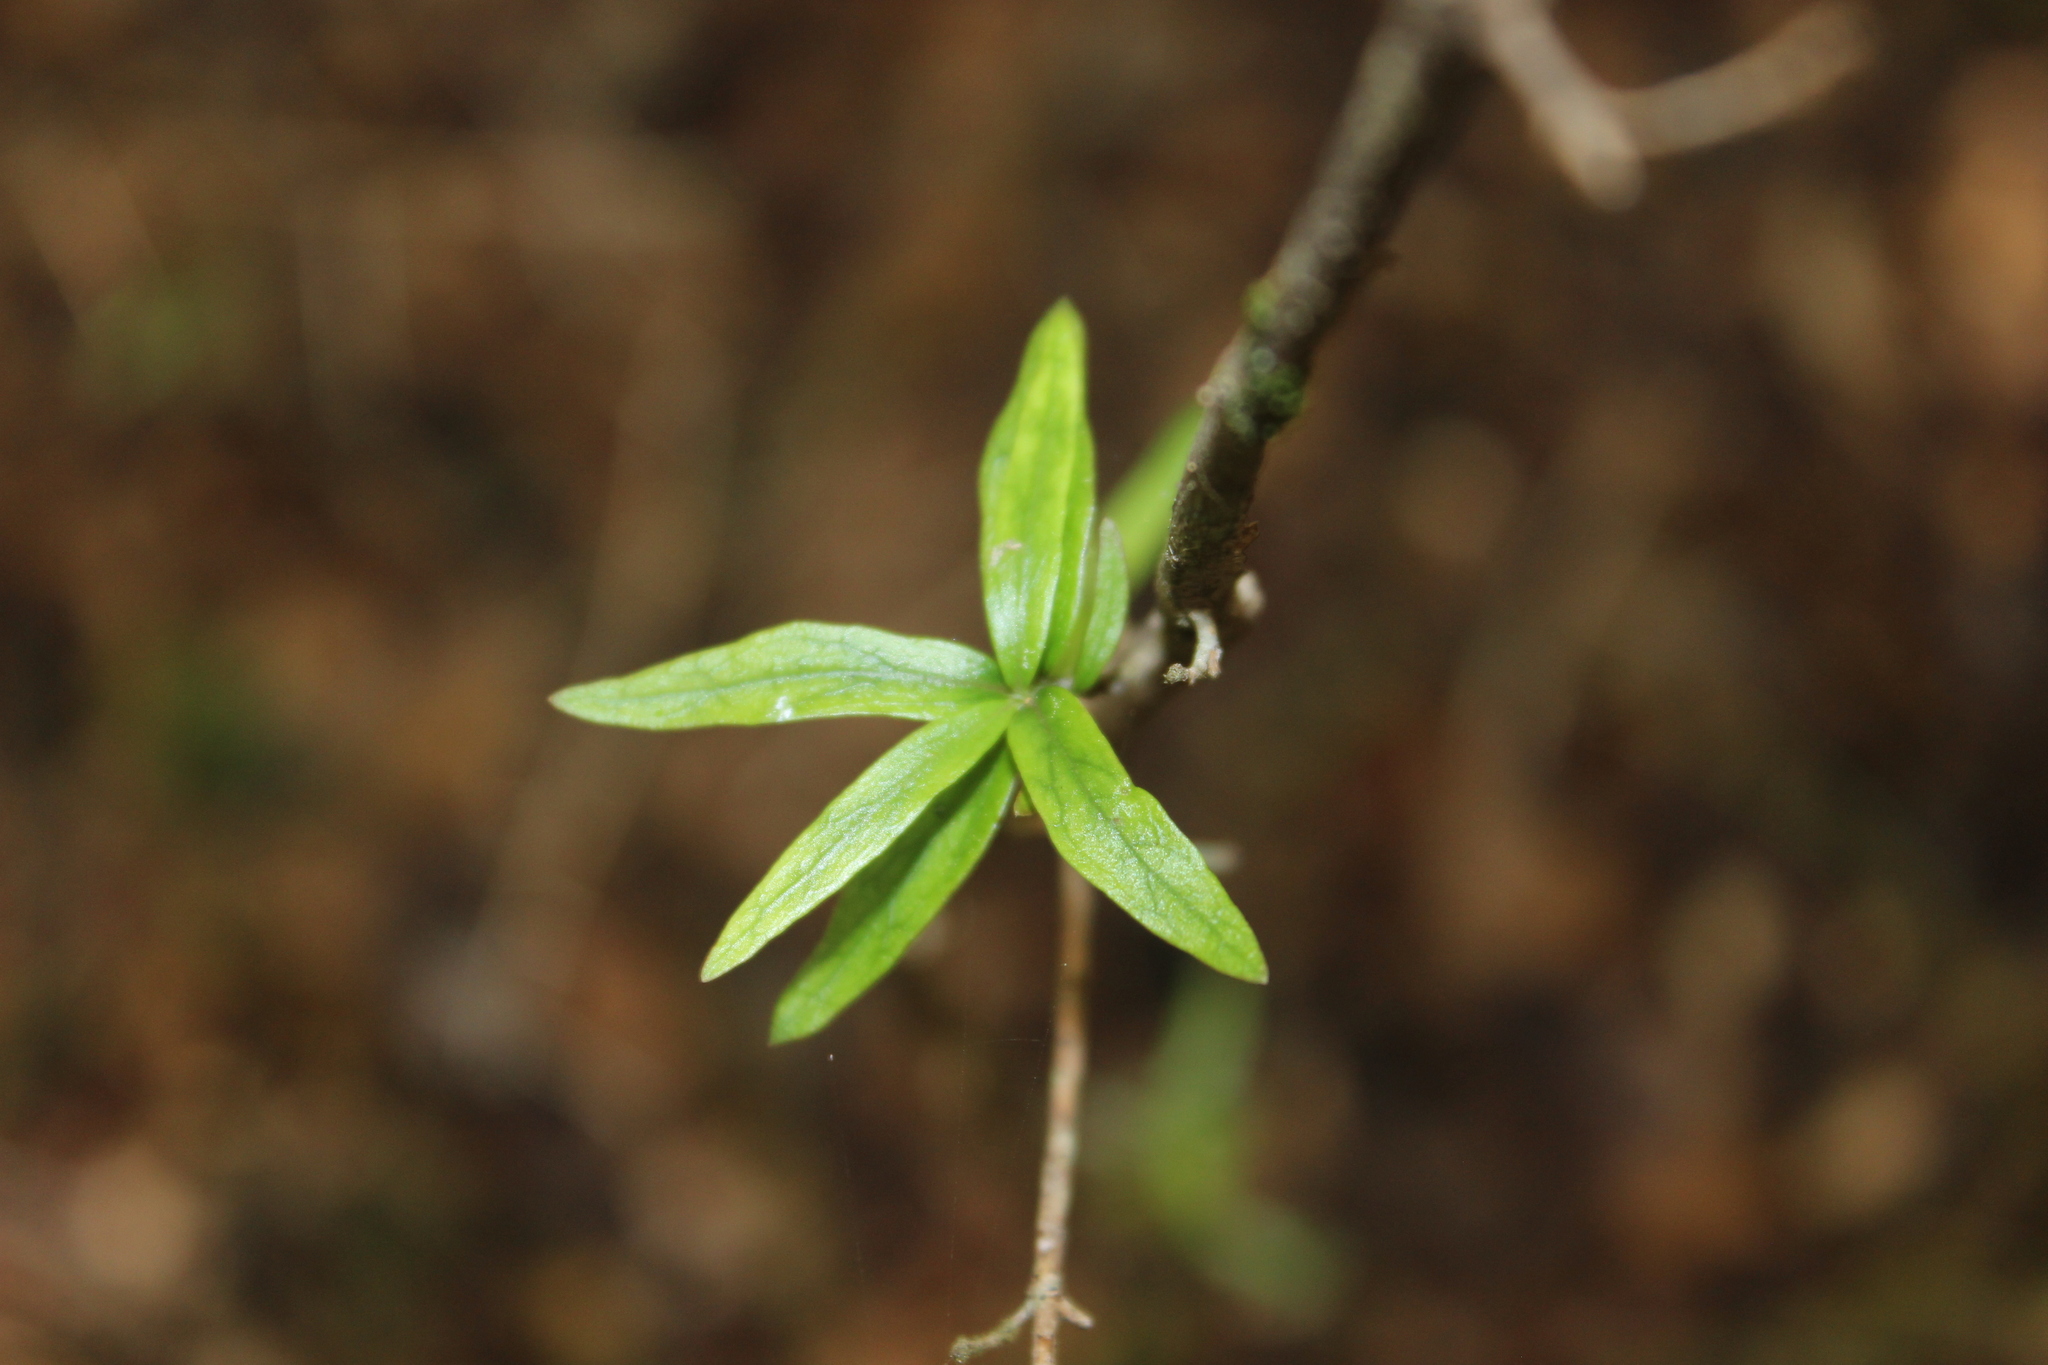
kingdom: Plantae
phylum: Tracheophyta
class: Magnoliopsida
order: Gentianales
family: Rubiaceae
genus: Coprosma
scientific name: Coprosma linariifolia
